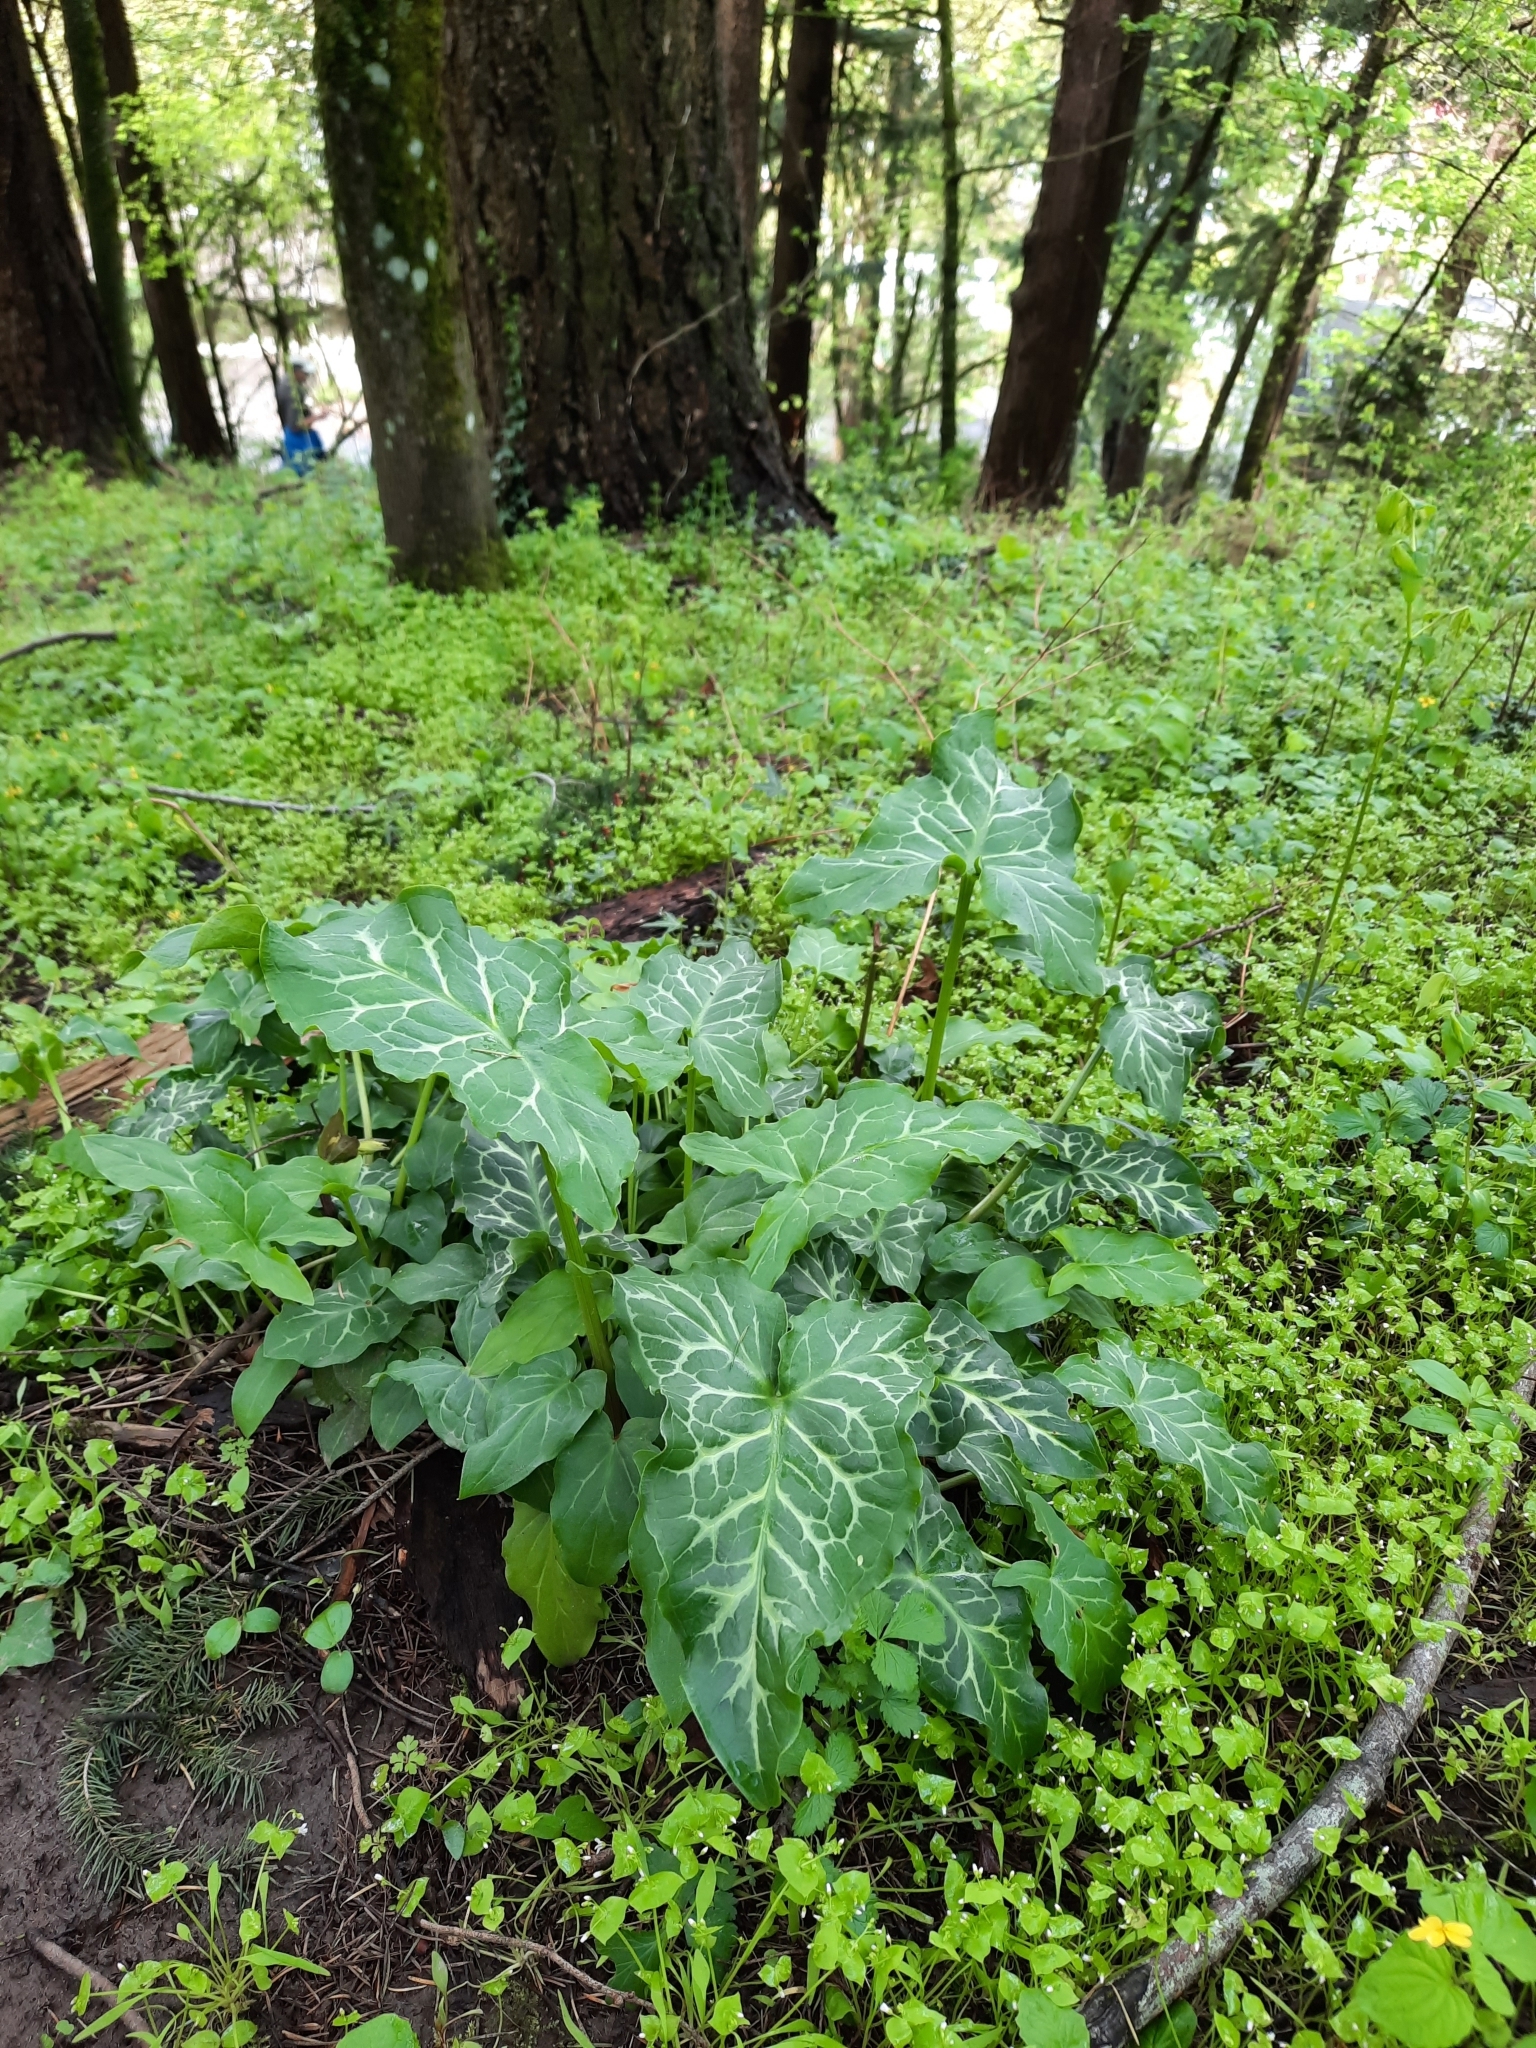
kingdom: Plantae
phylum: Tracheophyta
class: Liliopsida
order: Alismatales
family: Araceae
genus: Arum
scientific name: Arum italicum
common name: Italian lords-and-ladies
